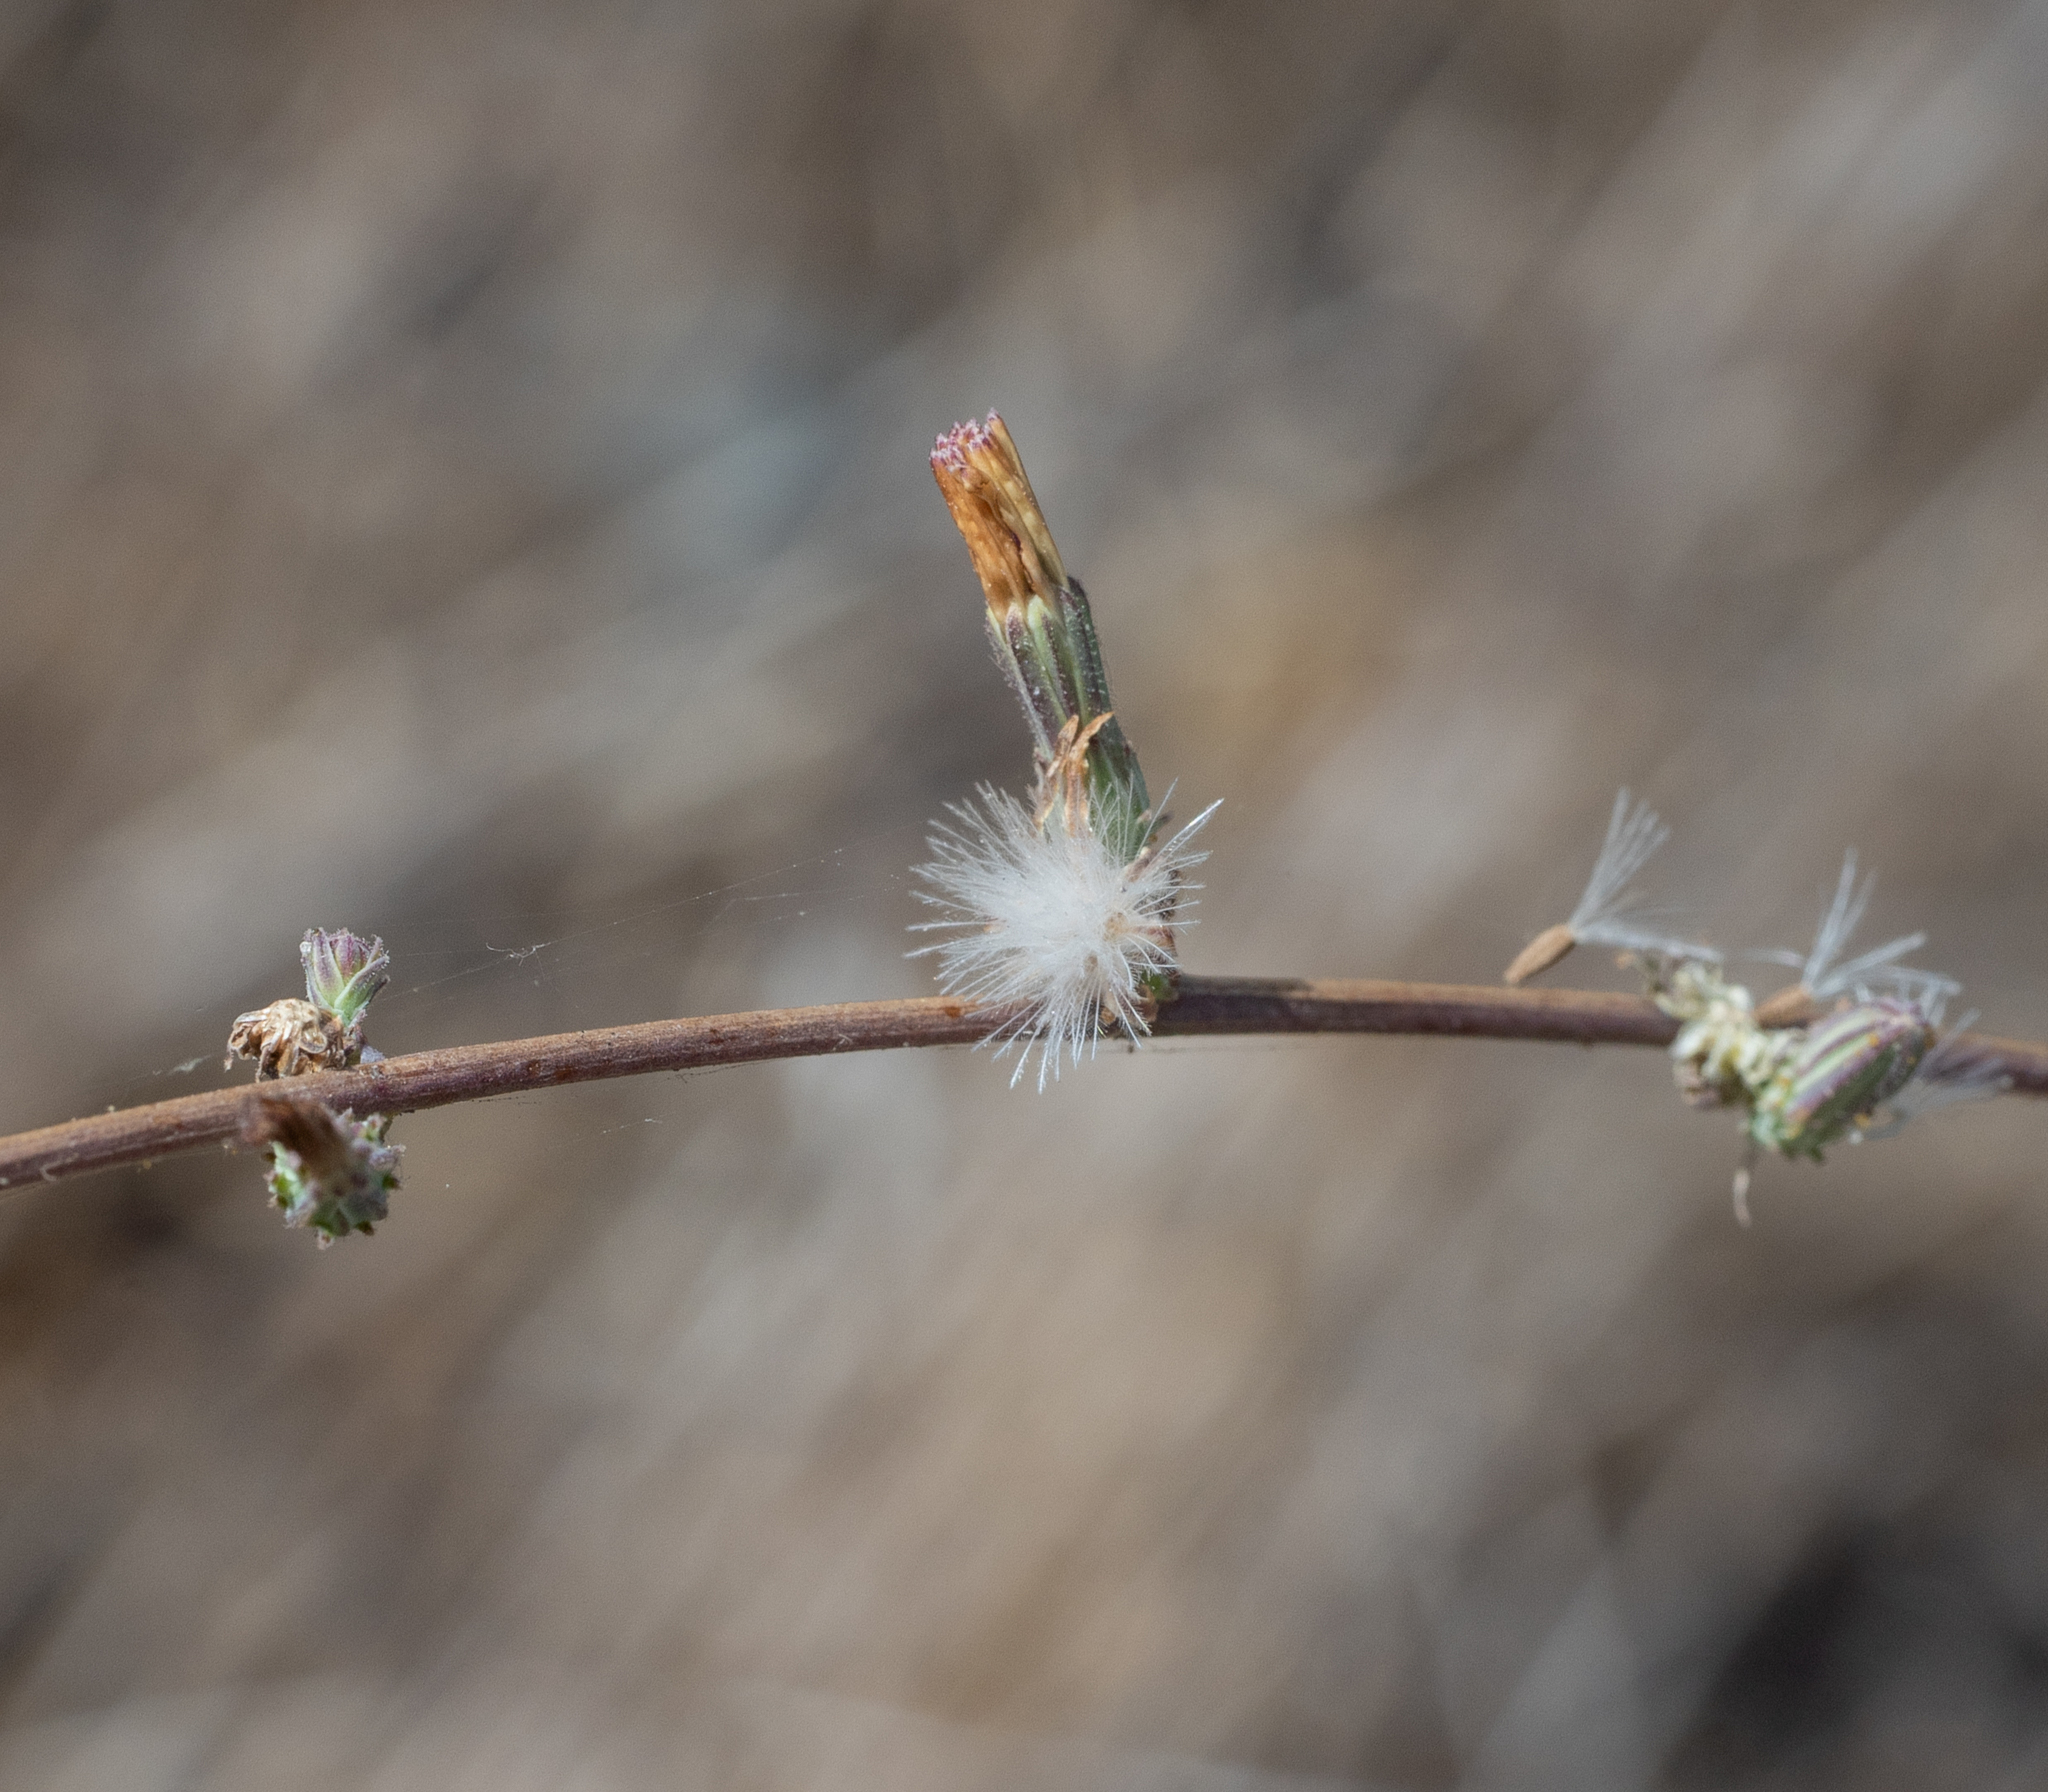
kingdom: Plantae
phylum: Tracheophyta
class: Magnoliopsida
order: Asterales
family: Asteraceae
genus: Stephanomeria
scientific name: Stephanomeria diegensis
